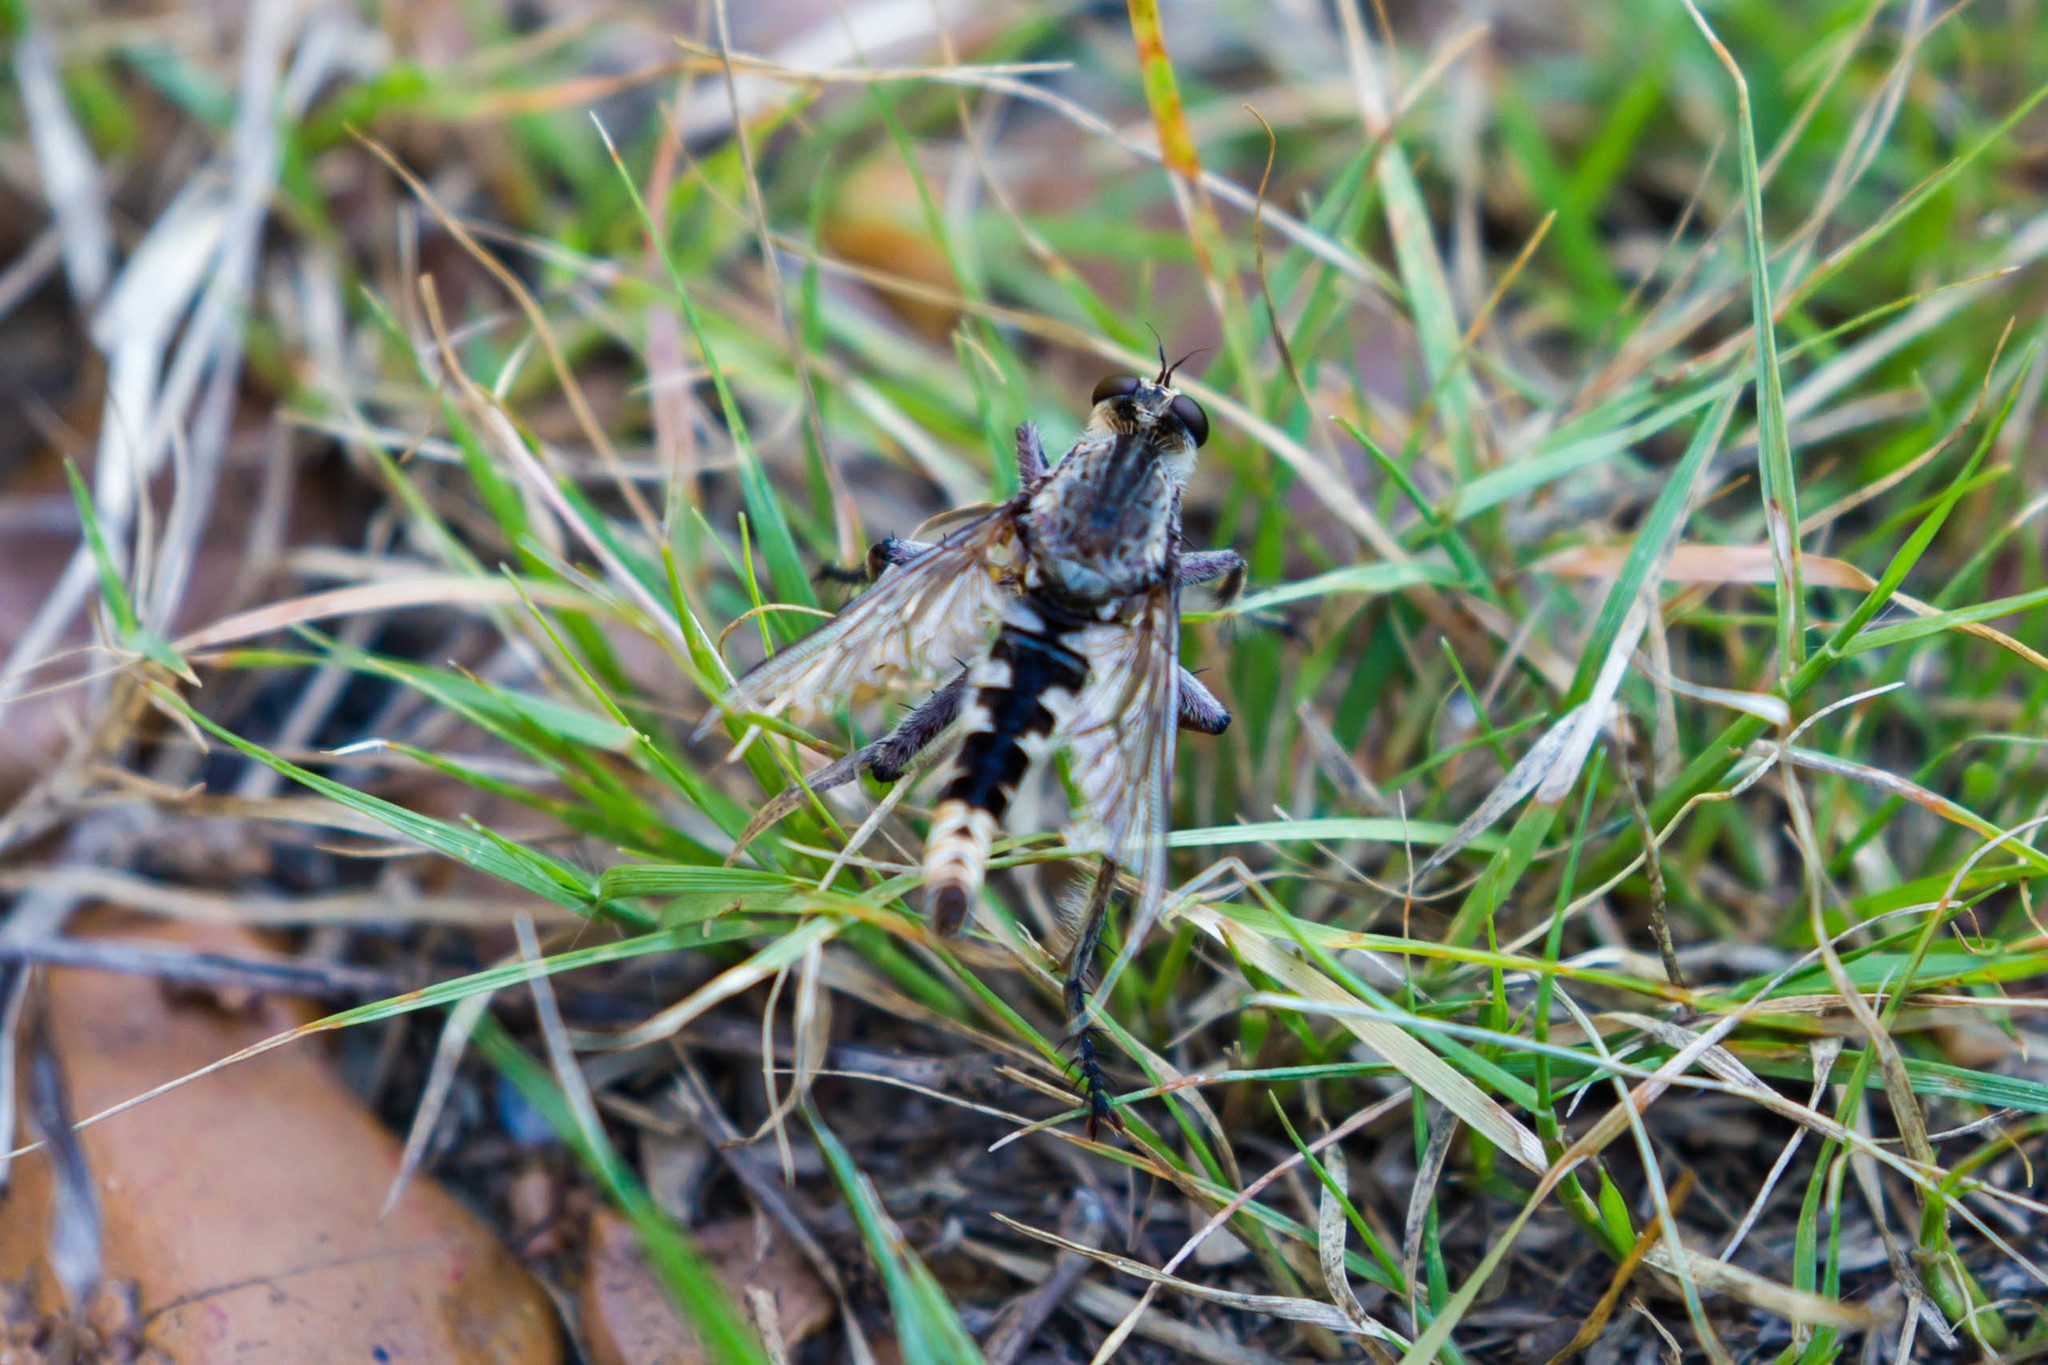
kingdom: Animalia
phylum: Arthropoda
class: Insecta
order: Diptera
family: Asilidae
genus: Triorla
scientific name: Triorla interrupta
